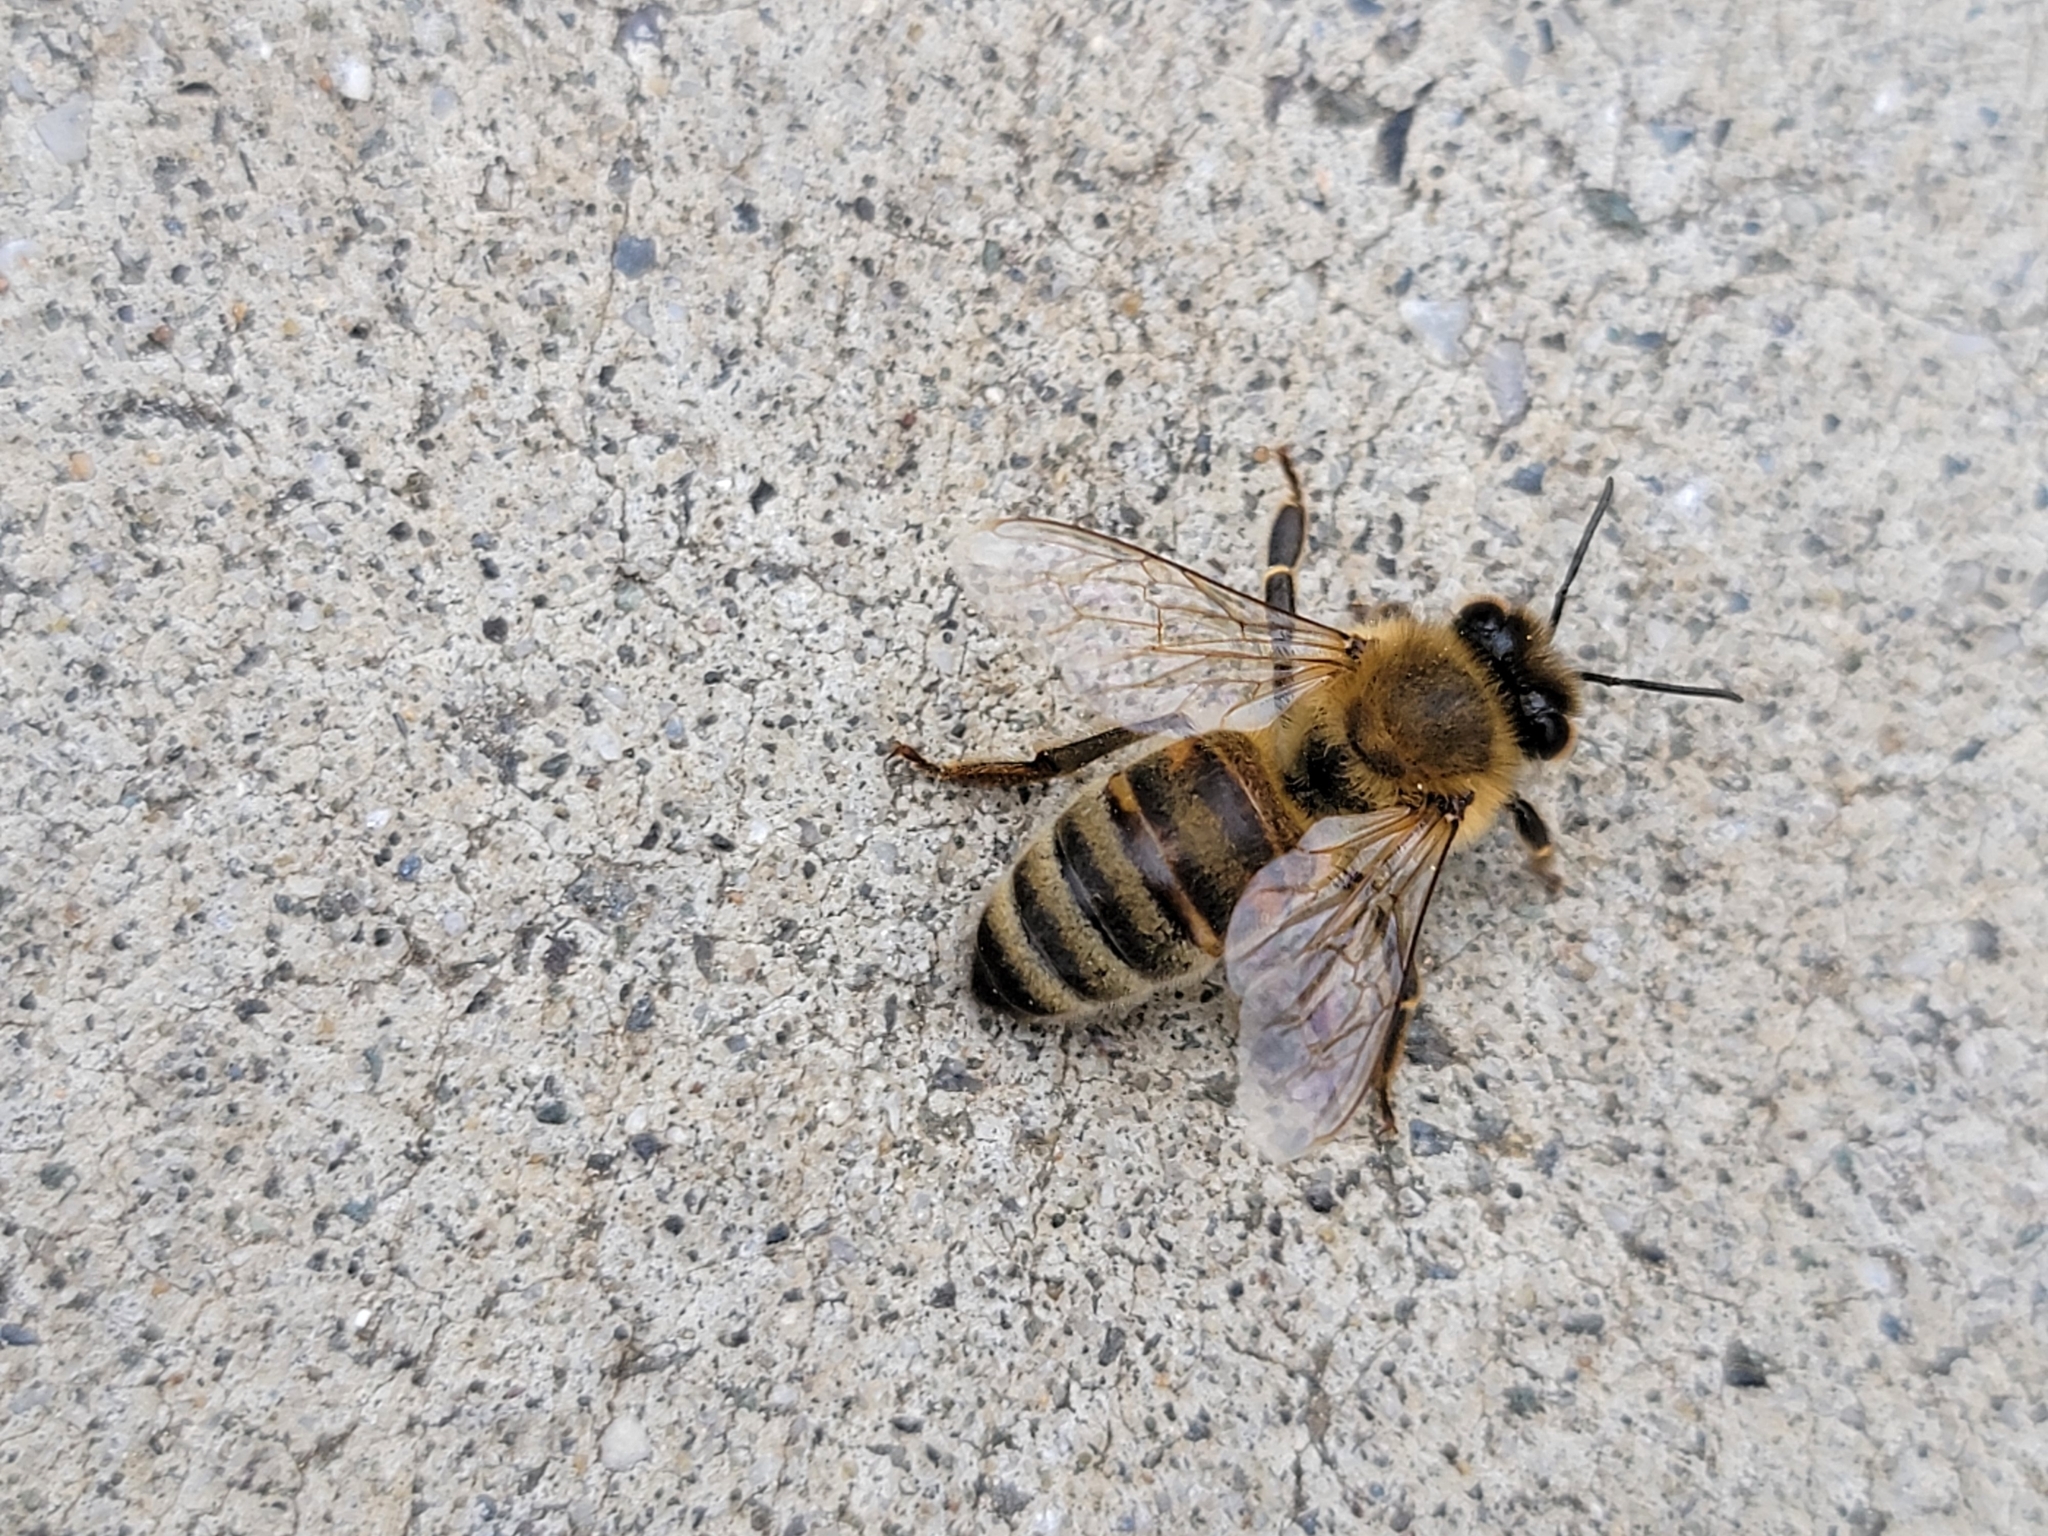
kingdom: Animalia
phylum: Arthropoda
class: Insecta
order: Hymenoptera
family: Apidae
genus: Apis
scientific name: Apis mellifera
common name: Honey bee
